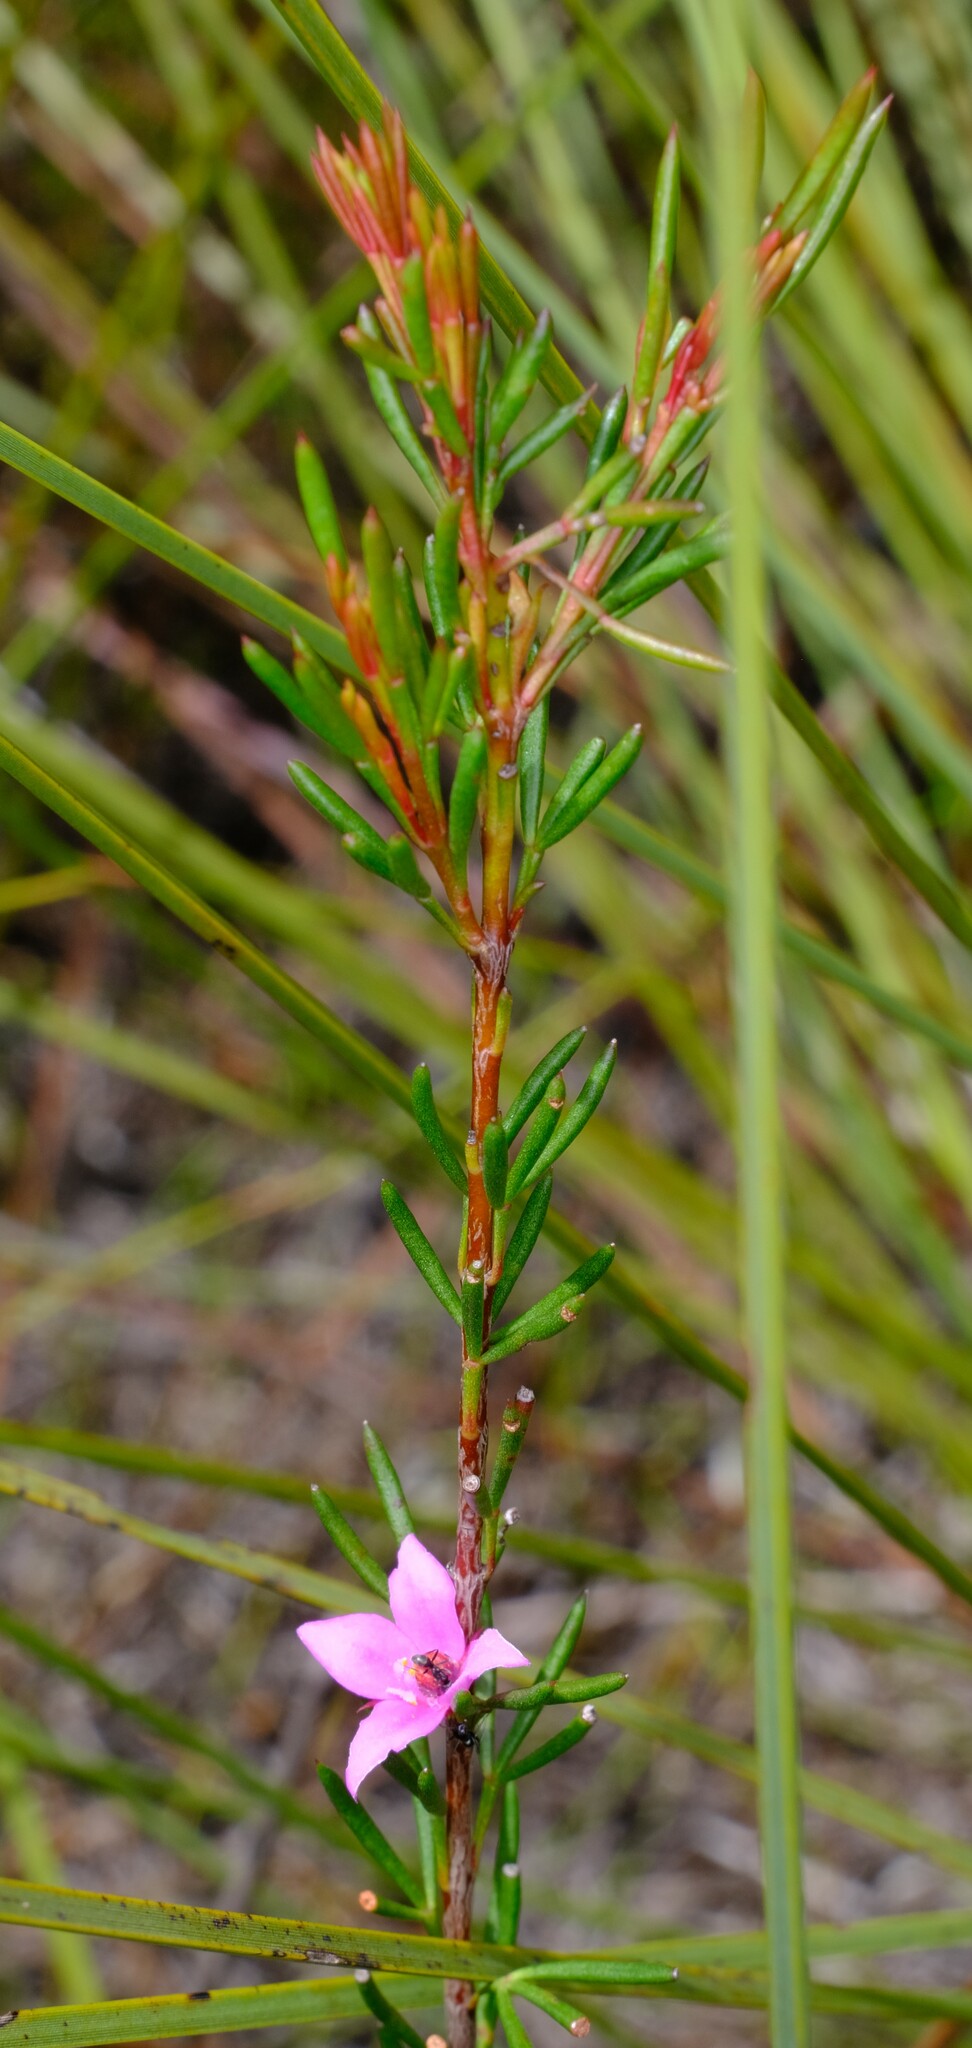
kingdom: Plantae
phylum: Tracheophyta
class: Magnoliopsida
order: Sapindales
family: Rutaceae
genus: Boronia
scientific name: Boronia falcifolia
